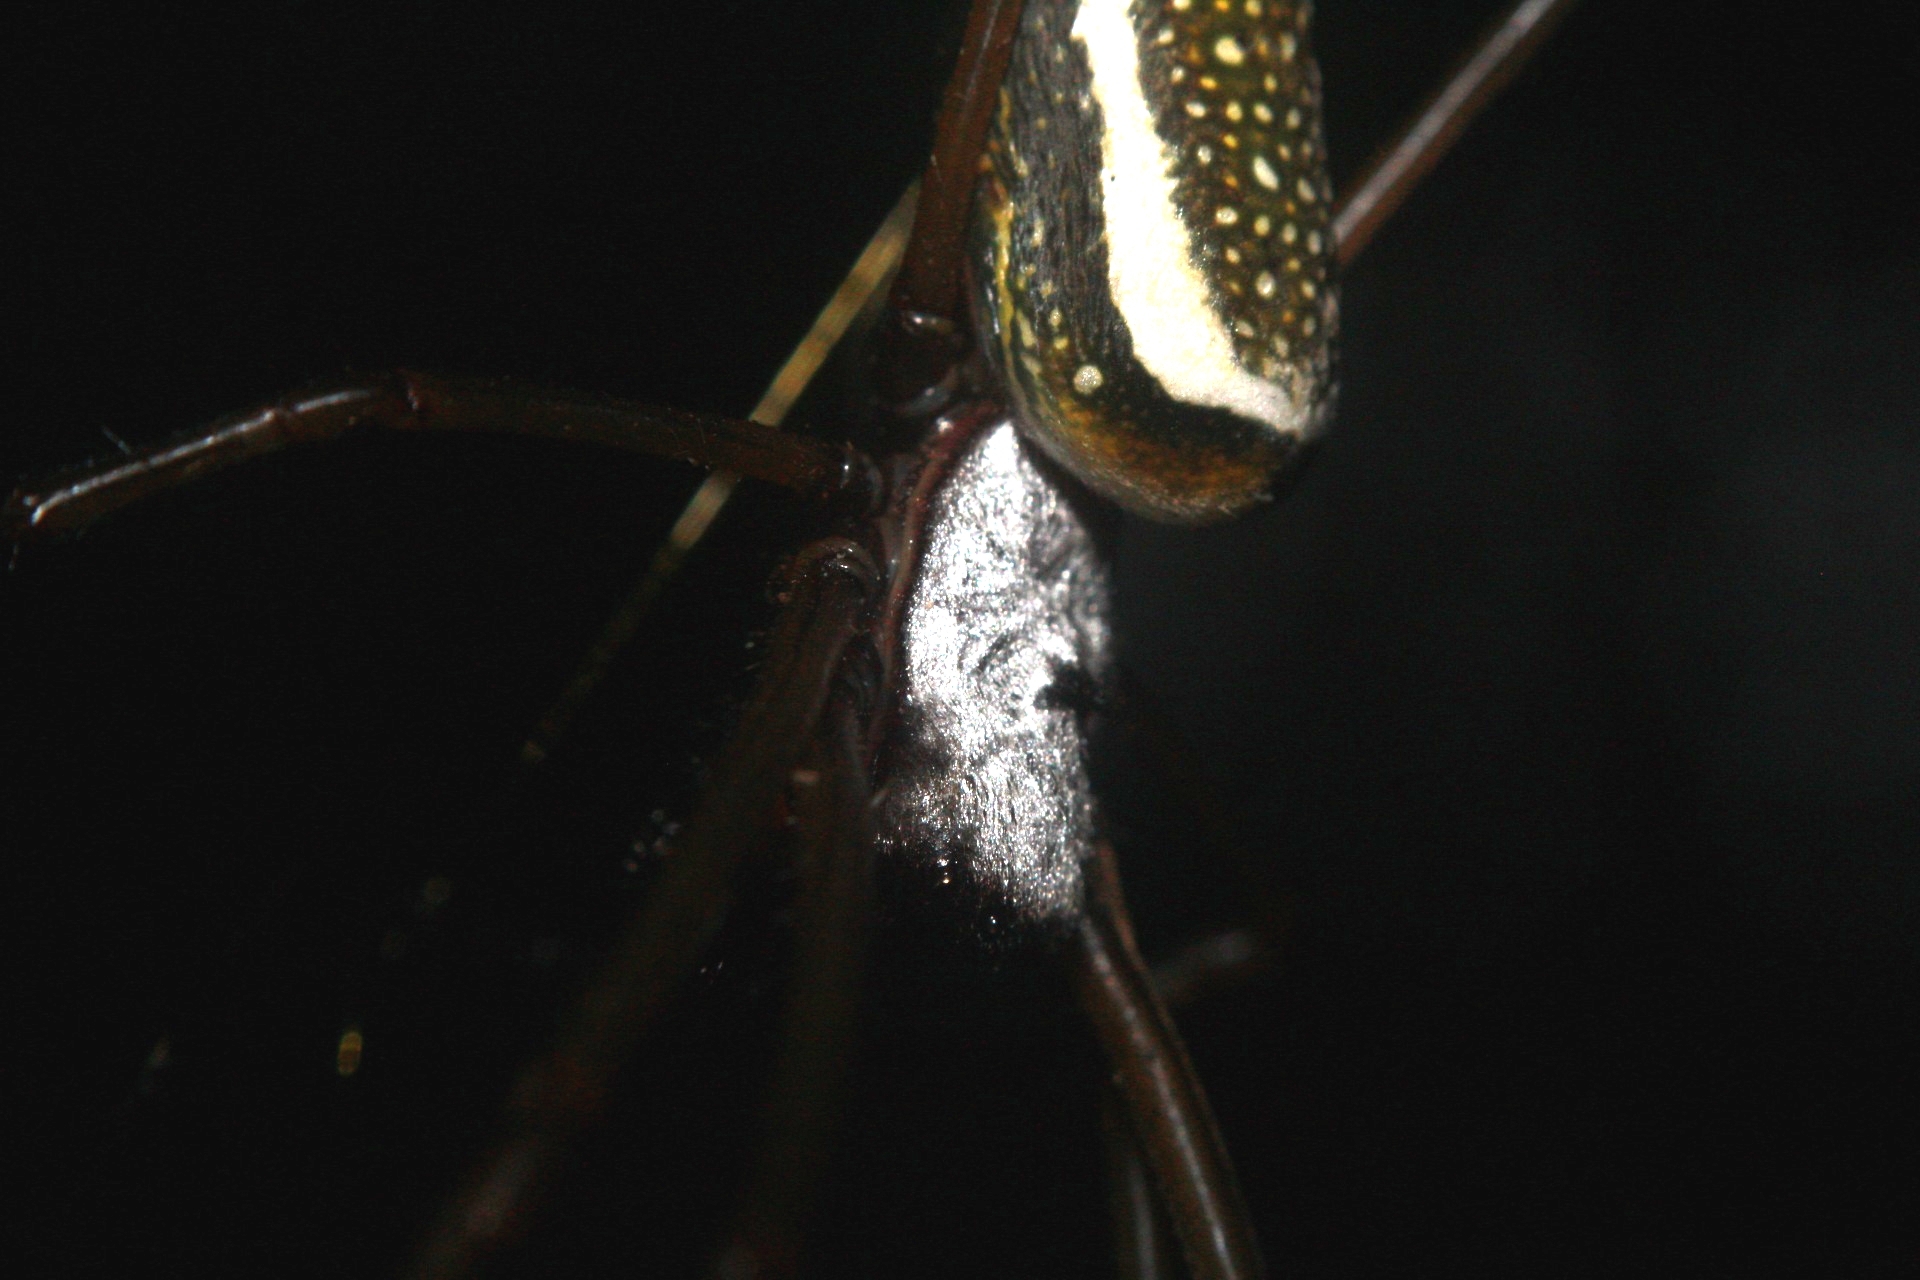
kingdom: Animalia
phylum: Arthropoda
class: Arachnida
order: Araneae
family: Araneidae
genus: Trichonephila
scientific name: Trichonephila clavipes
